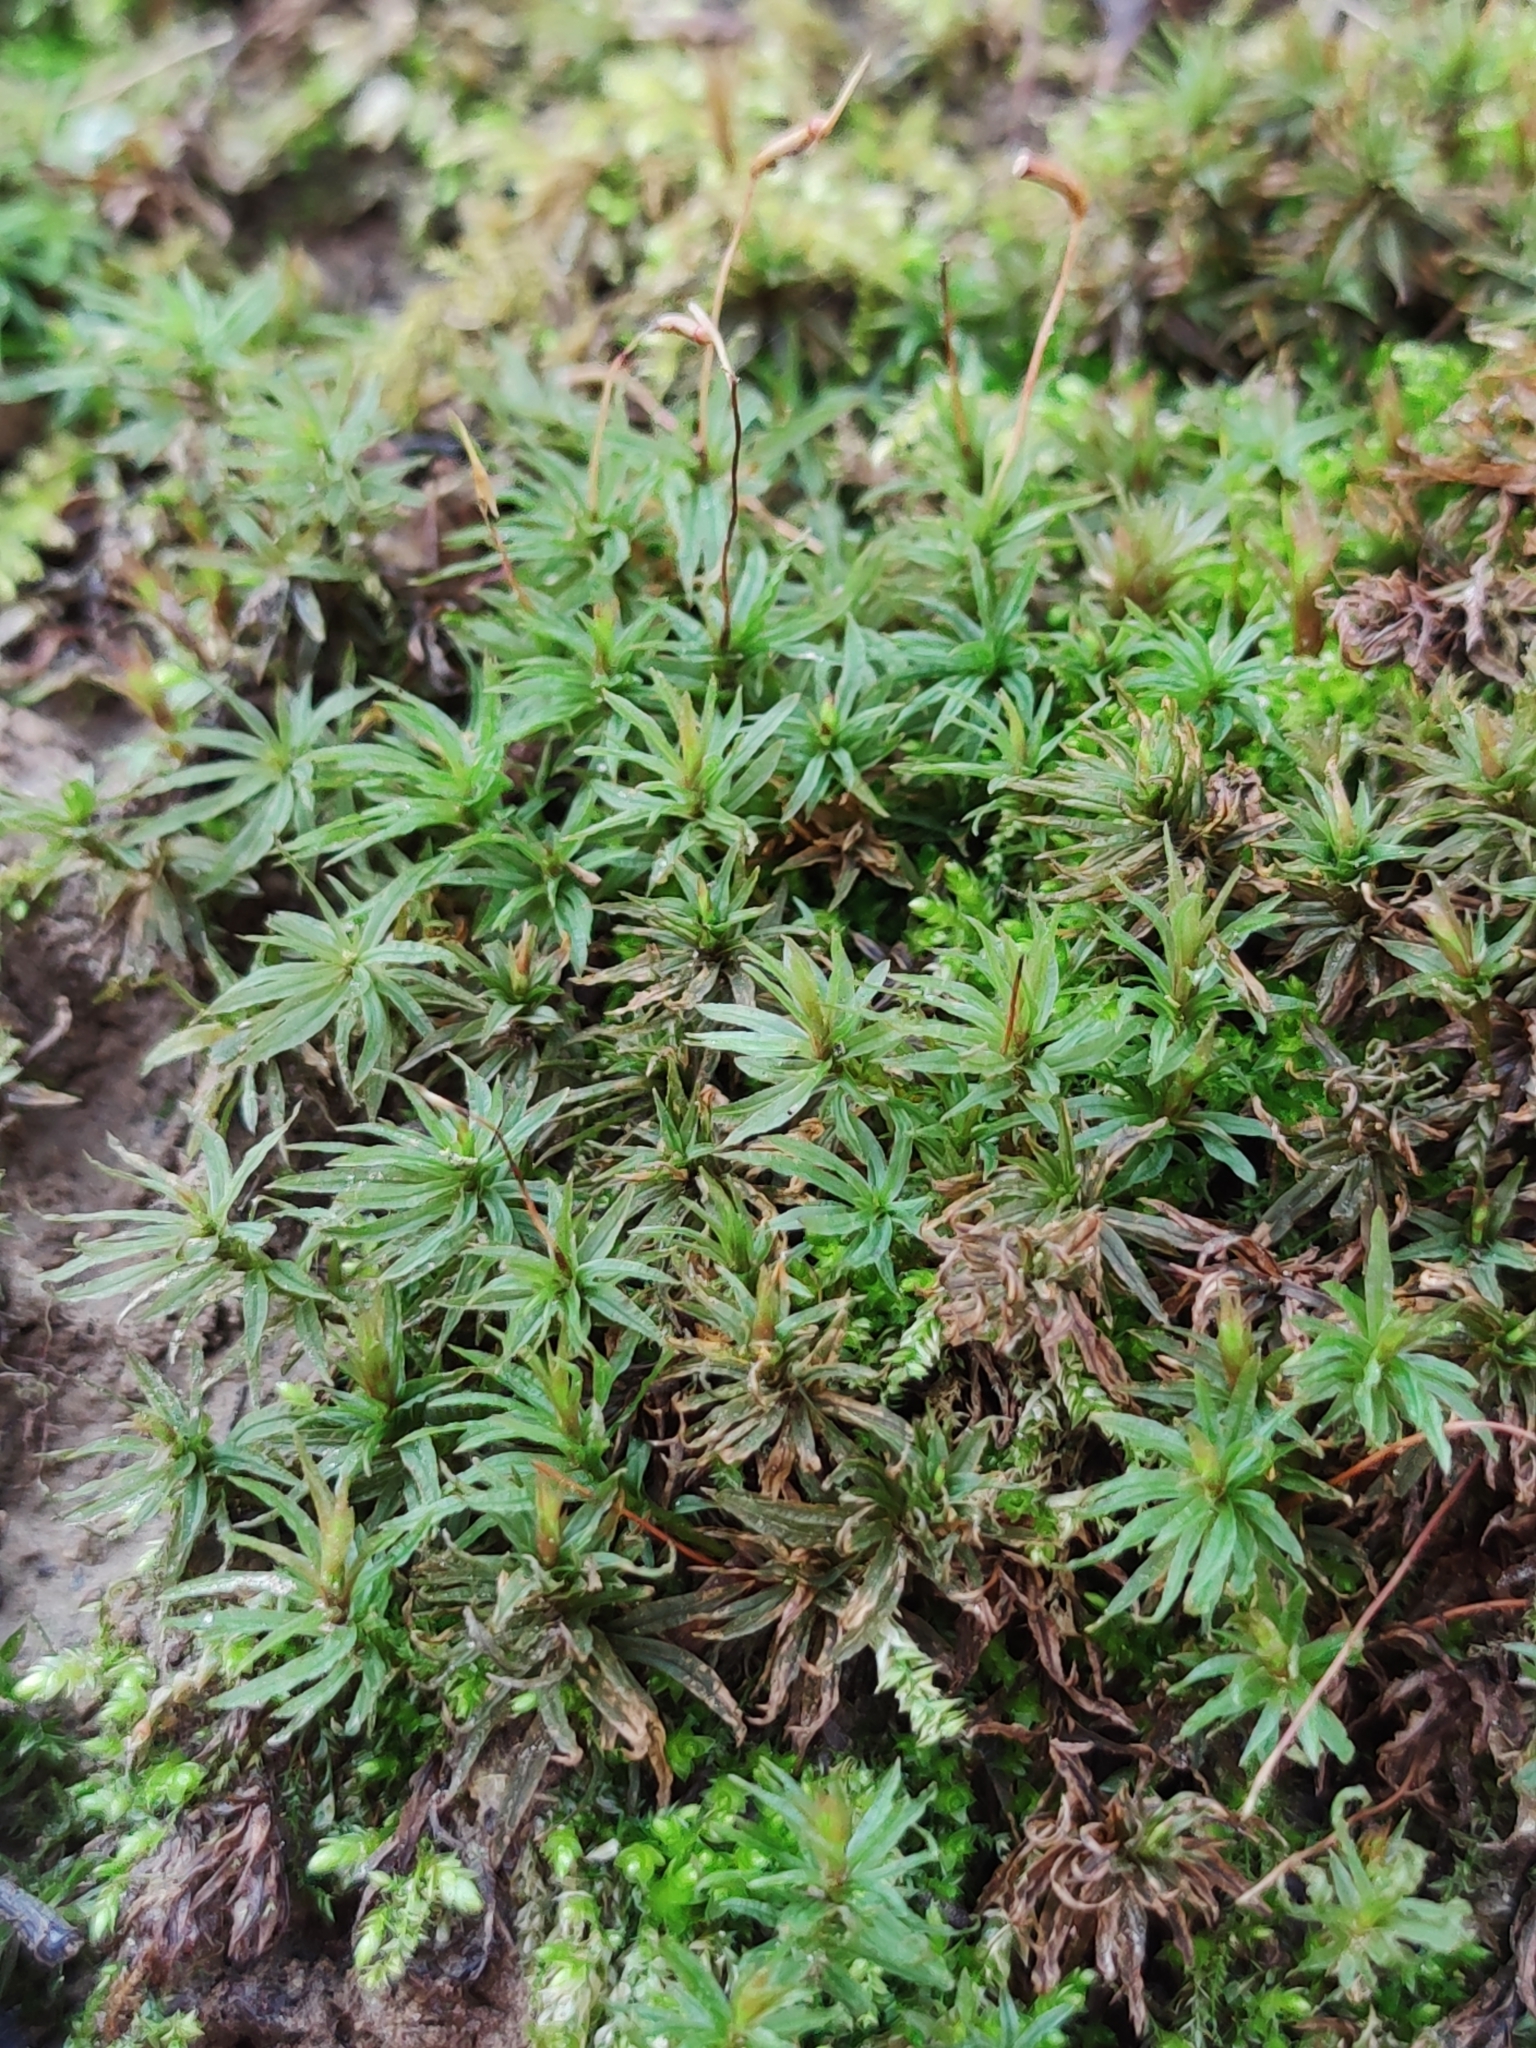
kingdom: Plantae
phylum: Bryophyta
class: Polytrichopsida
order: Polytrichales
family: Polytrichaceae
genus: Atrichum
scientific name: Atrichum undulatum
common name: Common smoothcap
